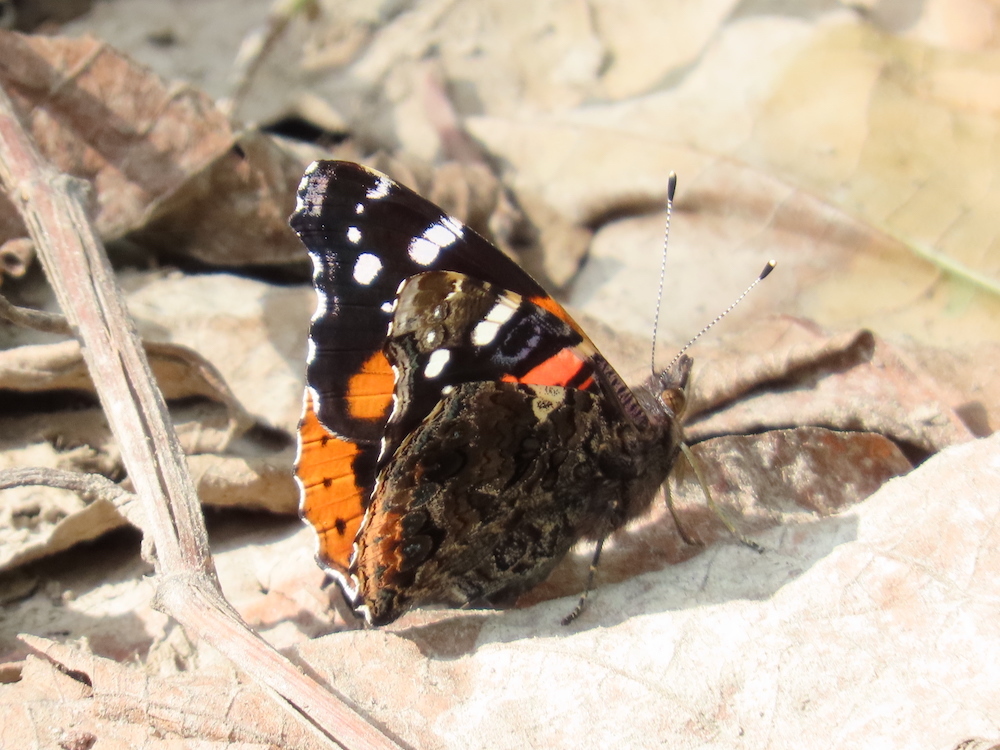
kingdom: Animalia
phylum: Arthropoda
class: Insecta
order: Lepidoptera
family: Nymphalidae
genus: Vanessa
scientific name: Vanessa atalanta
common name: Red admiral
